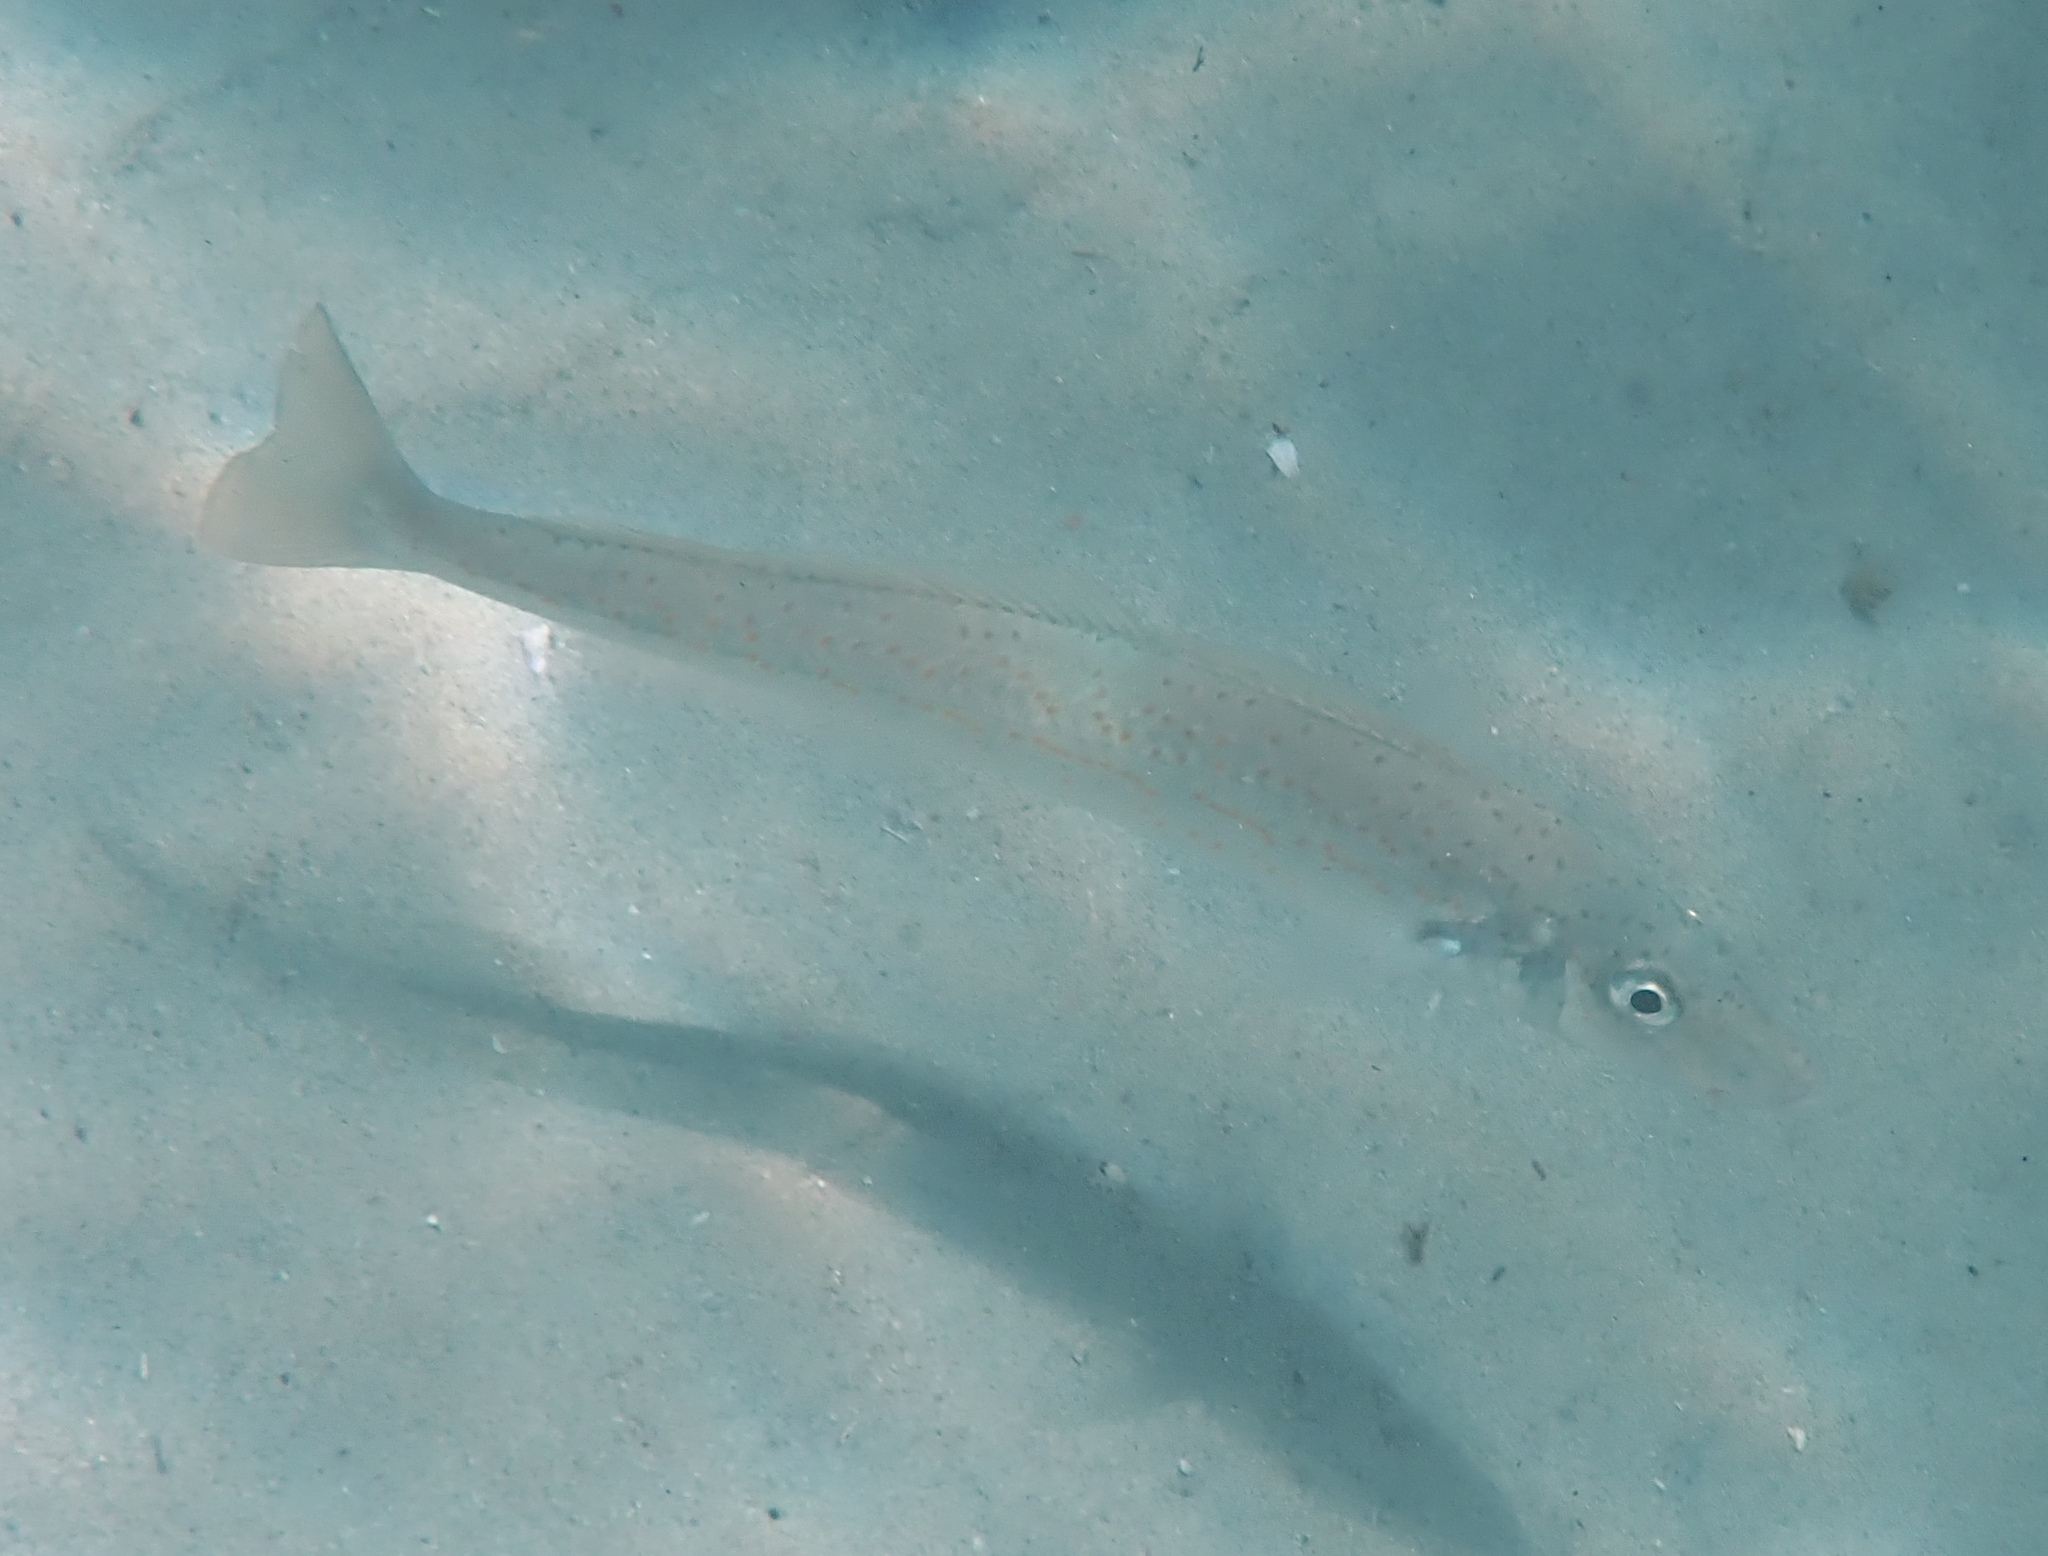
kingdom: Animalia
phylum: Chordata
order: Perciformes
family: Sillaginidae
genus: Sillaginodes
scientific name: Sillaginodes punctatus
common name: King george whiting
